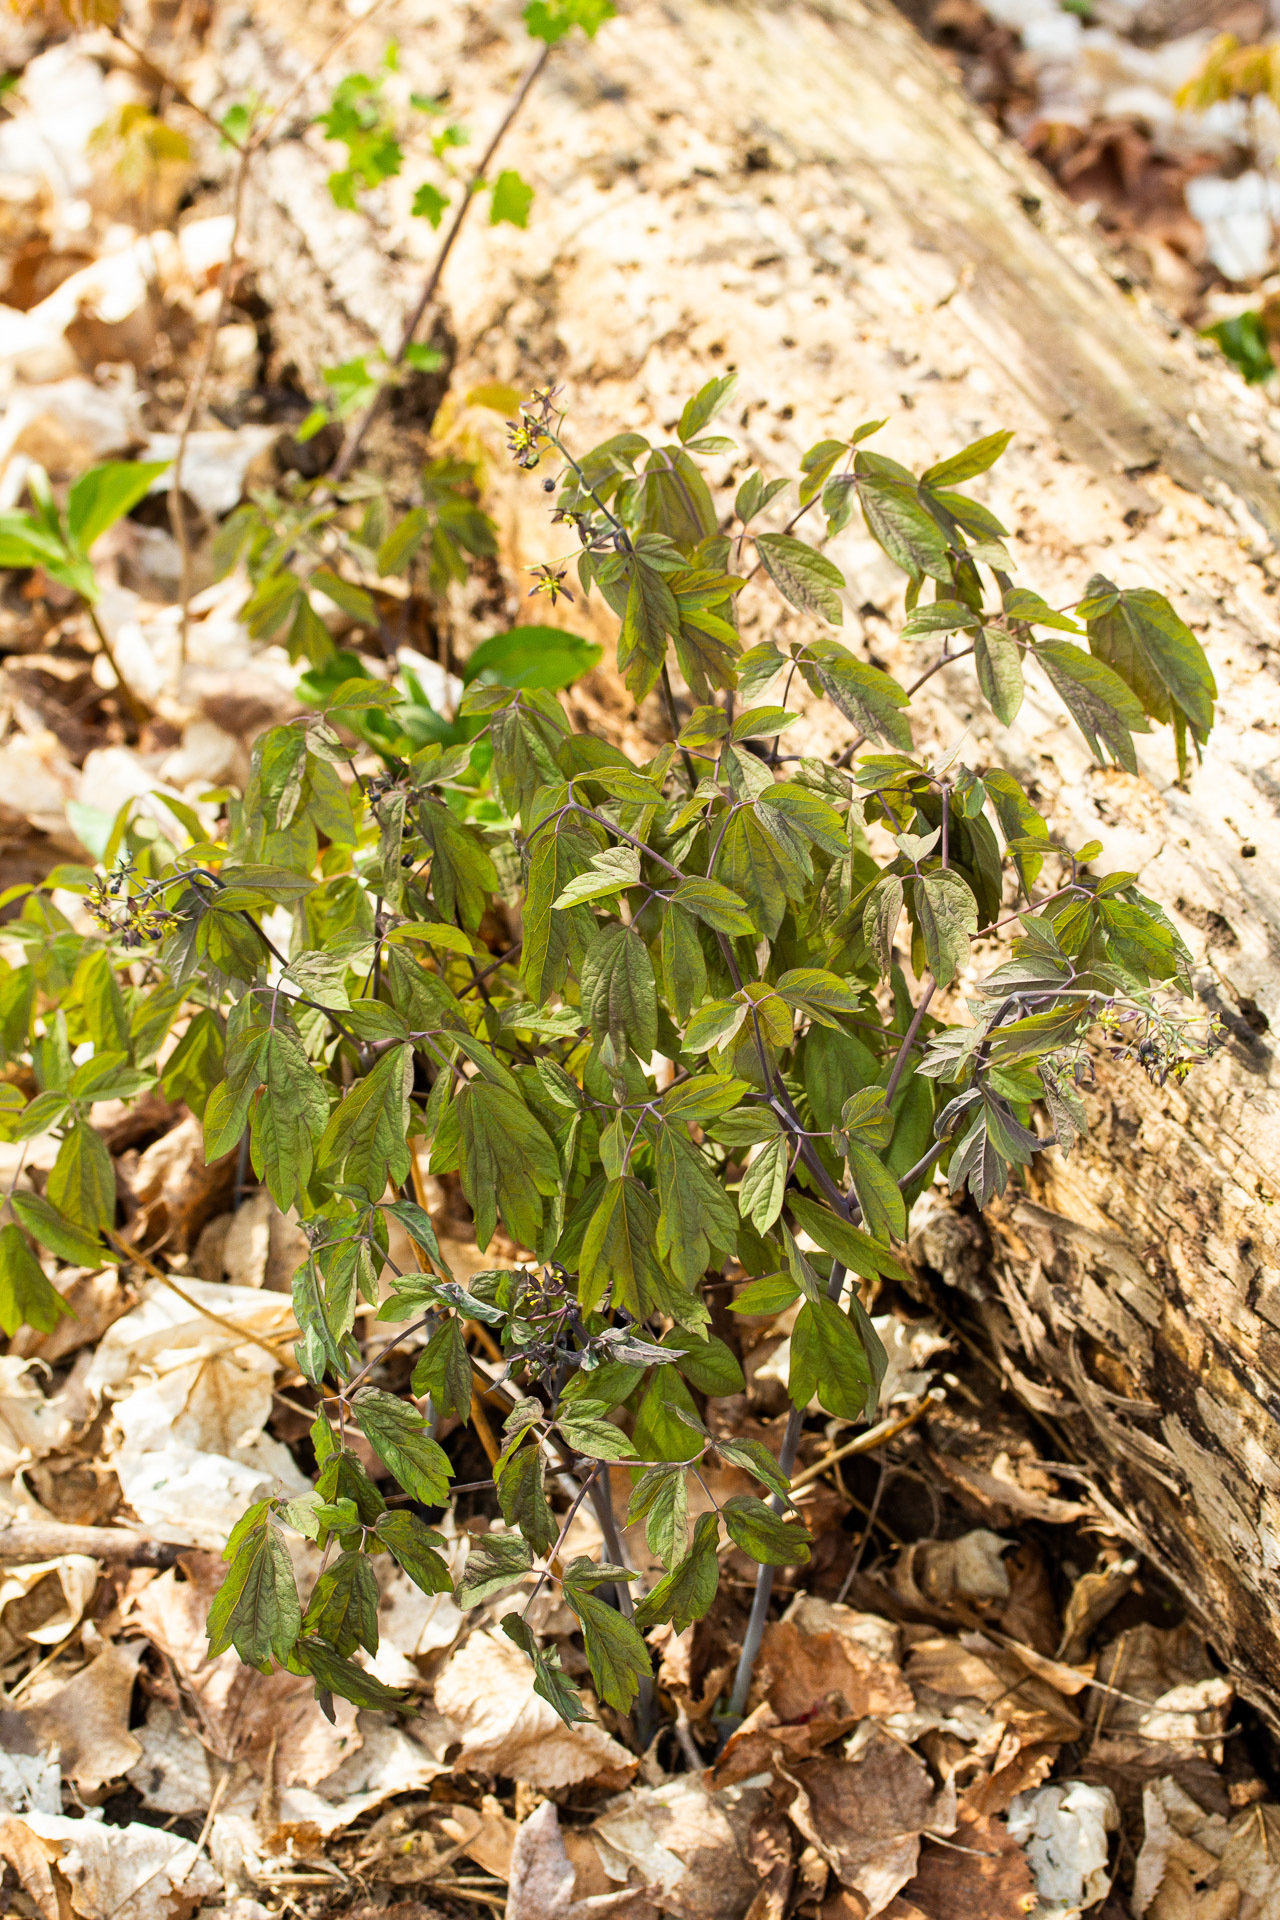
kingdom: Plantae
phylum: Tracheophyta
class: Magnoliopsida
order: Ranunculales
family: Berberidaceae
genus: Caulophyllum
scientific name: Caulophyllum giganteum
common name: Blue cohosh
